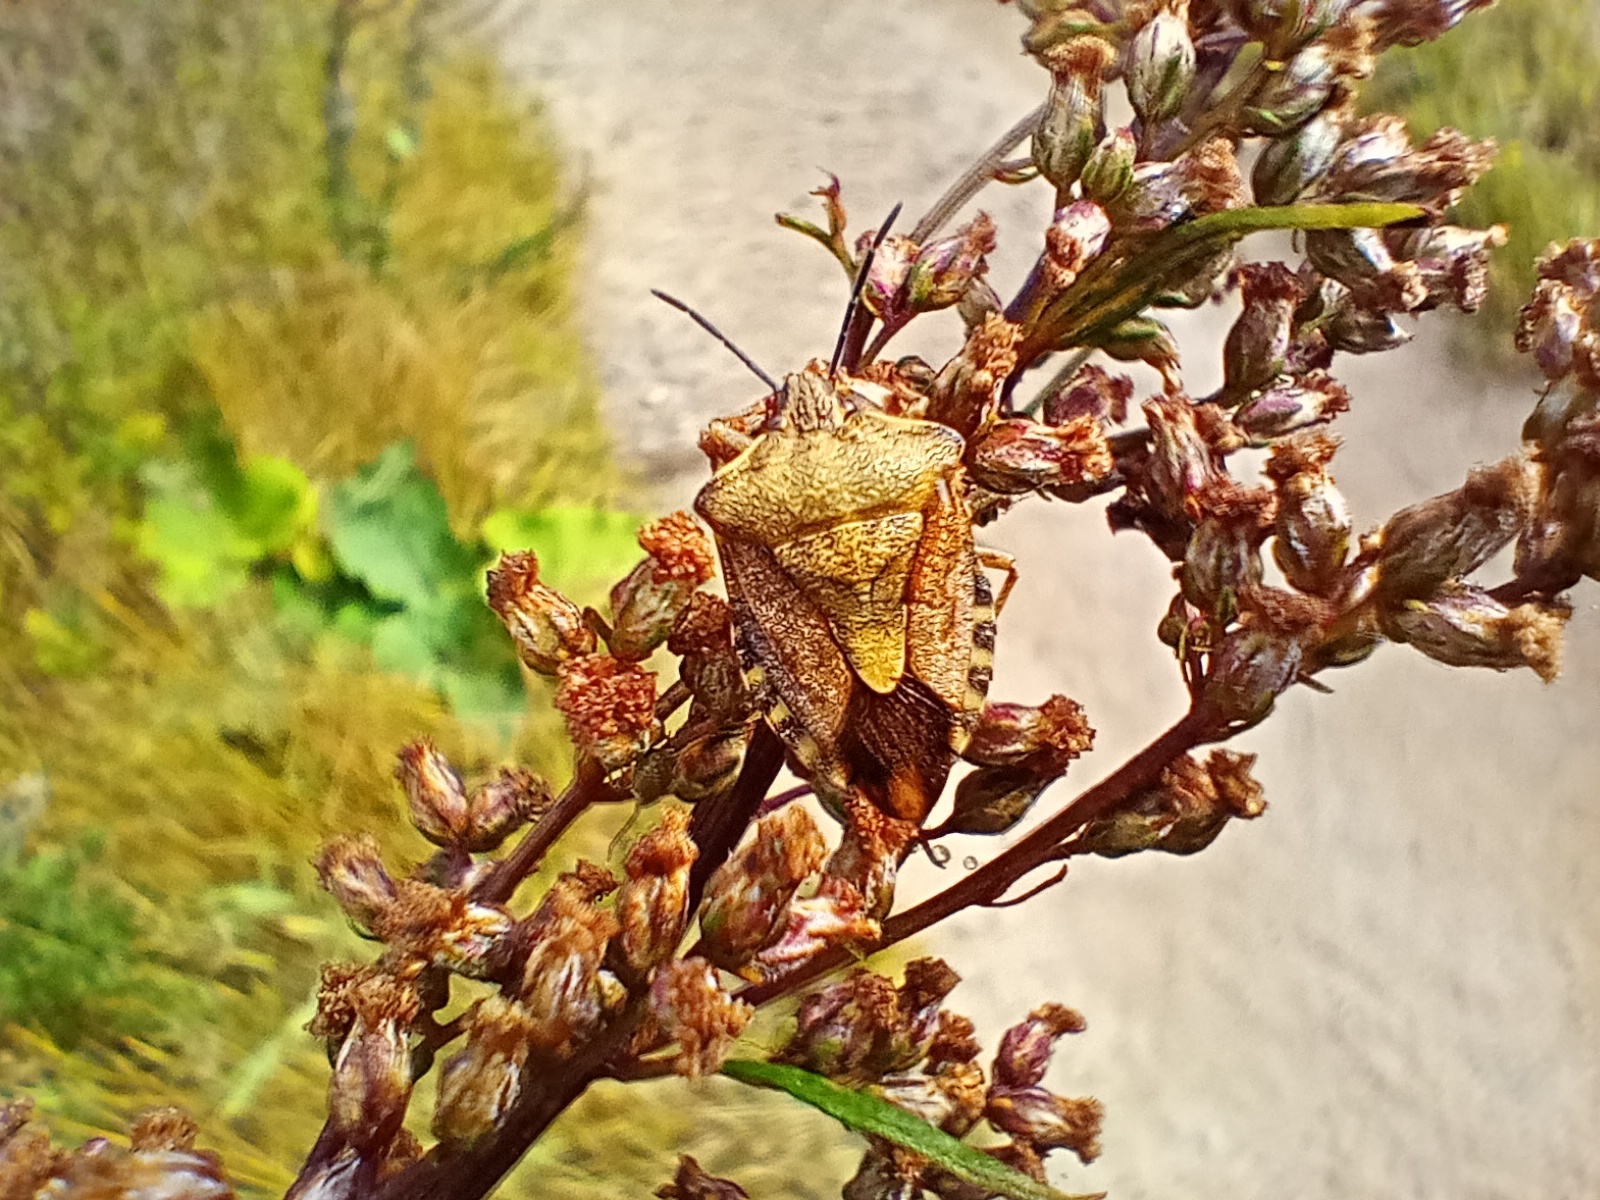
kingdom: Animalia
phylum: Arthropoda
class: Insecta
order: Hemiptera
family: Pentatomidae
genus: Carpocoris
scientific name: Carpocoris purpureipennis
